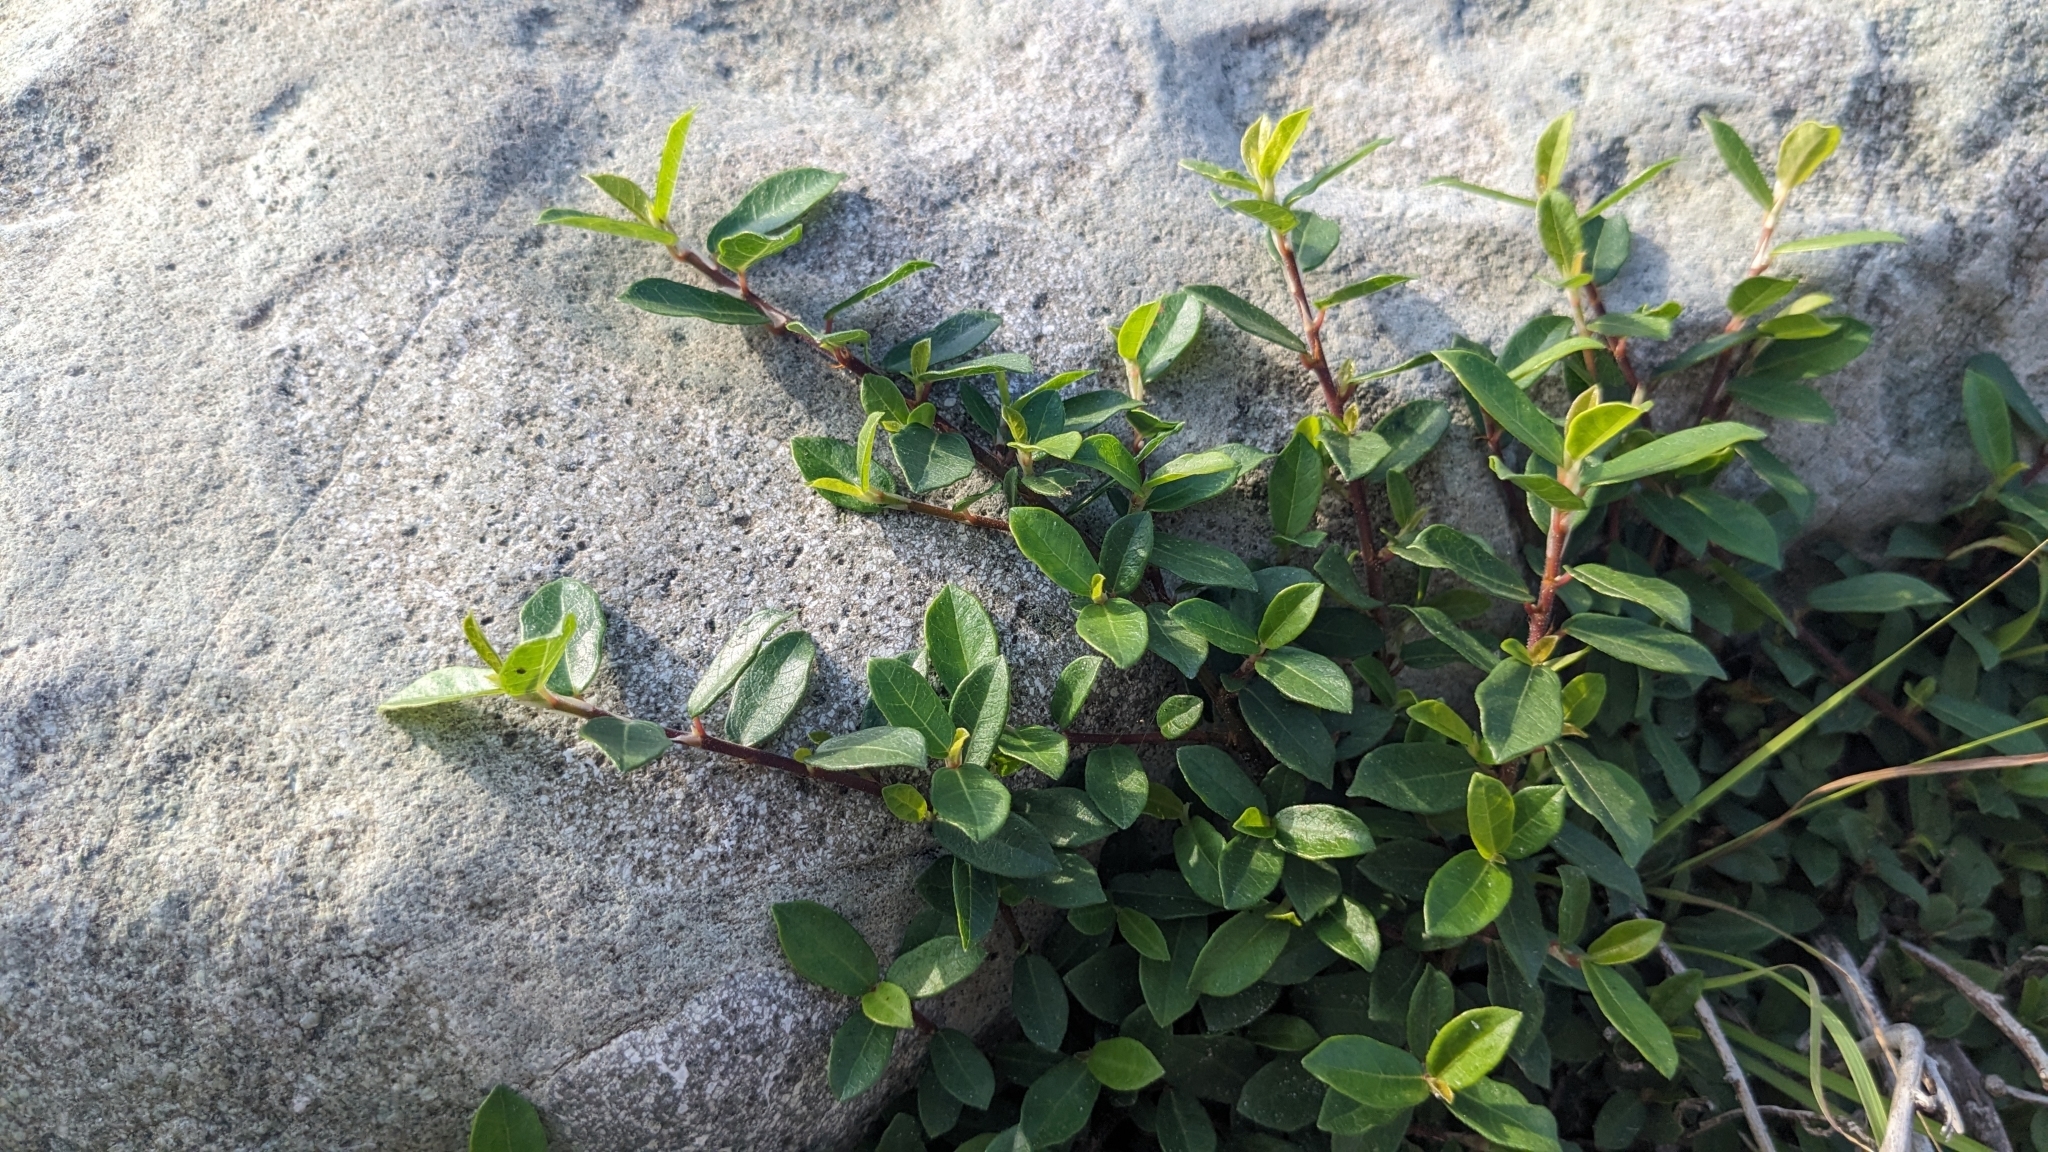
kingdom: Plantae
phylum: Tracheophyta
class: Magnoliopsida
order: Rosales
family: Moraceae
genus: Ficus
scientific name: Ficus vaccinioides
